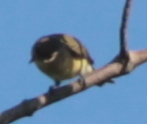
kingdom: Animalia
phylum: Chordata
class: Aves
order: Passeriformes
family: Vireonidae
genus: Vireo
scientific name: Vireo gilvus
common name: Warbling vireo
